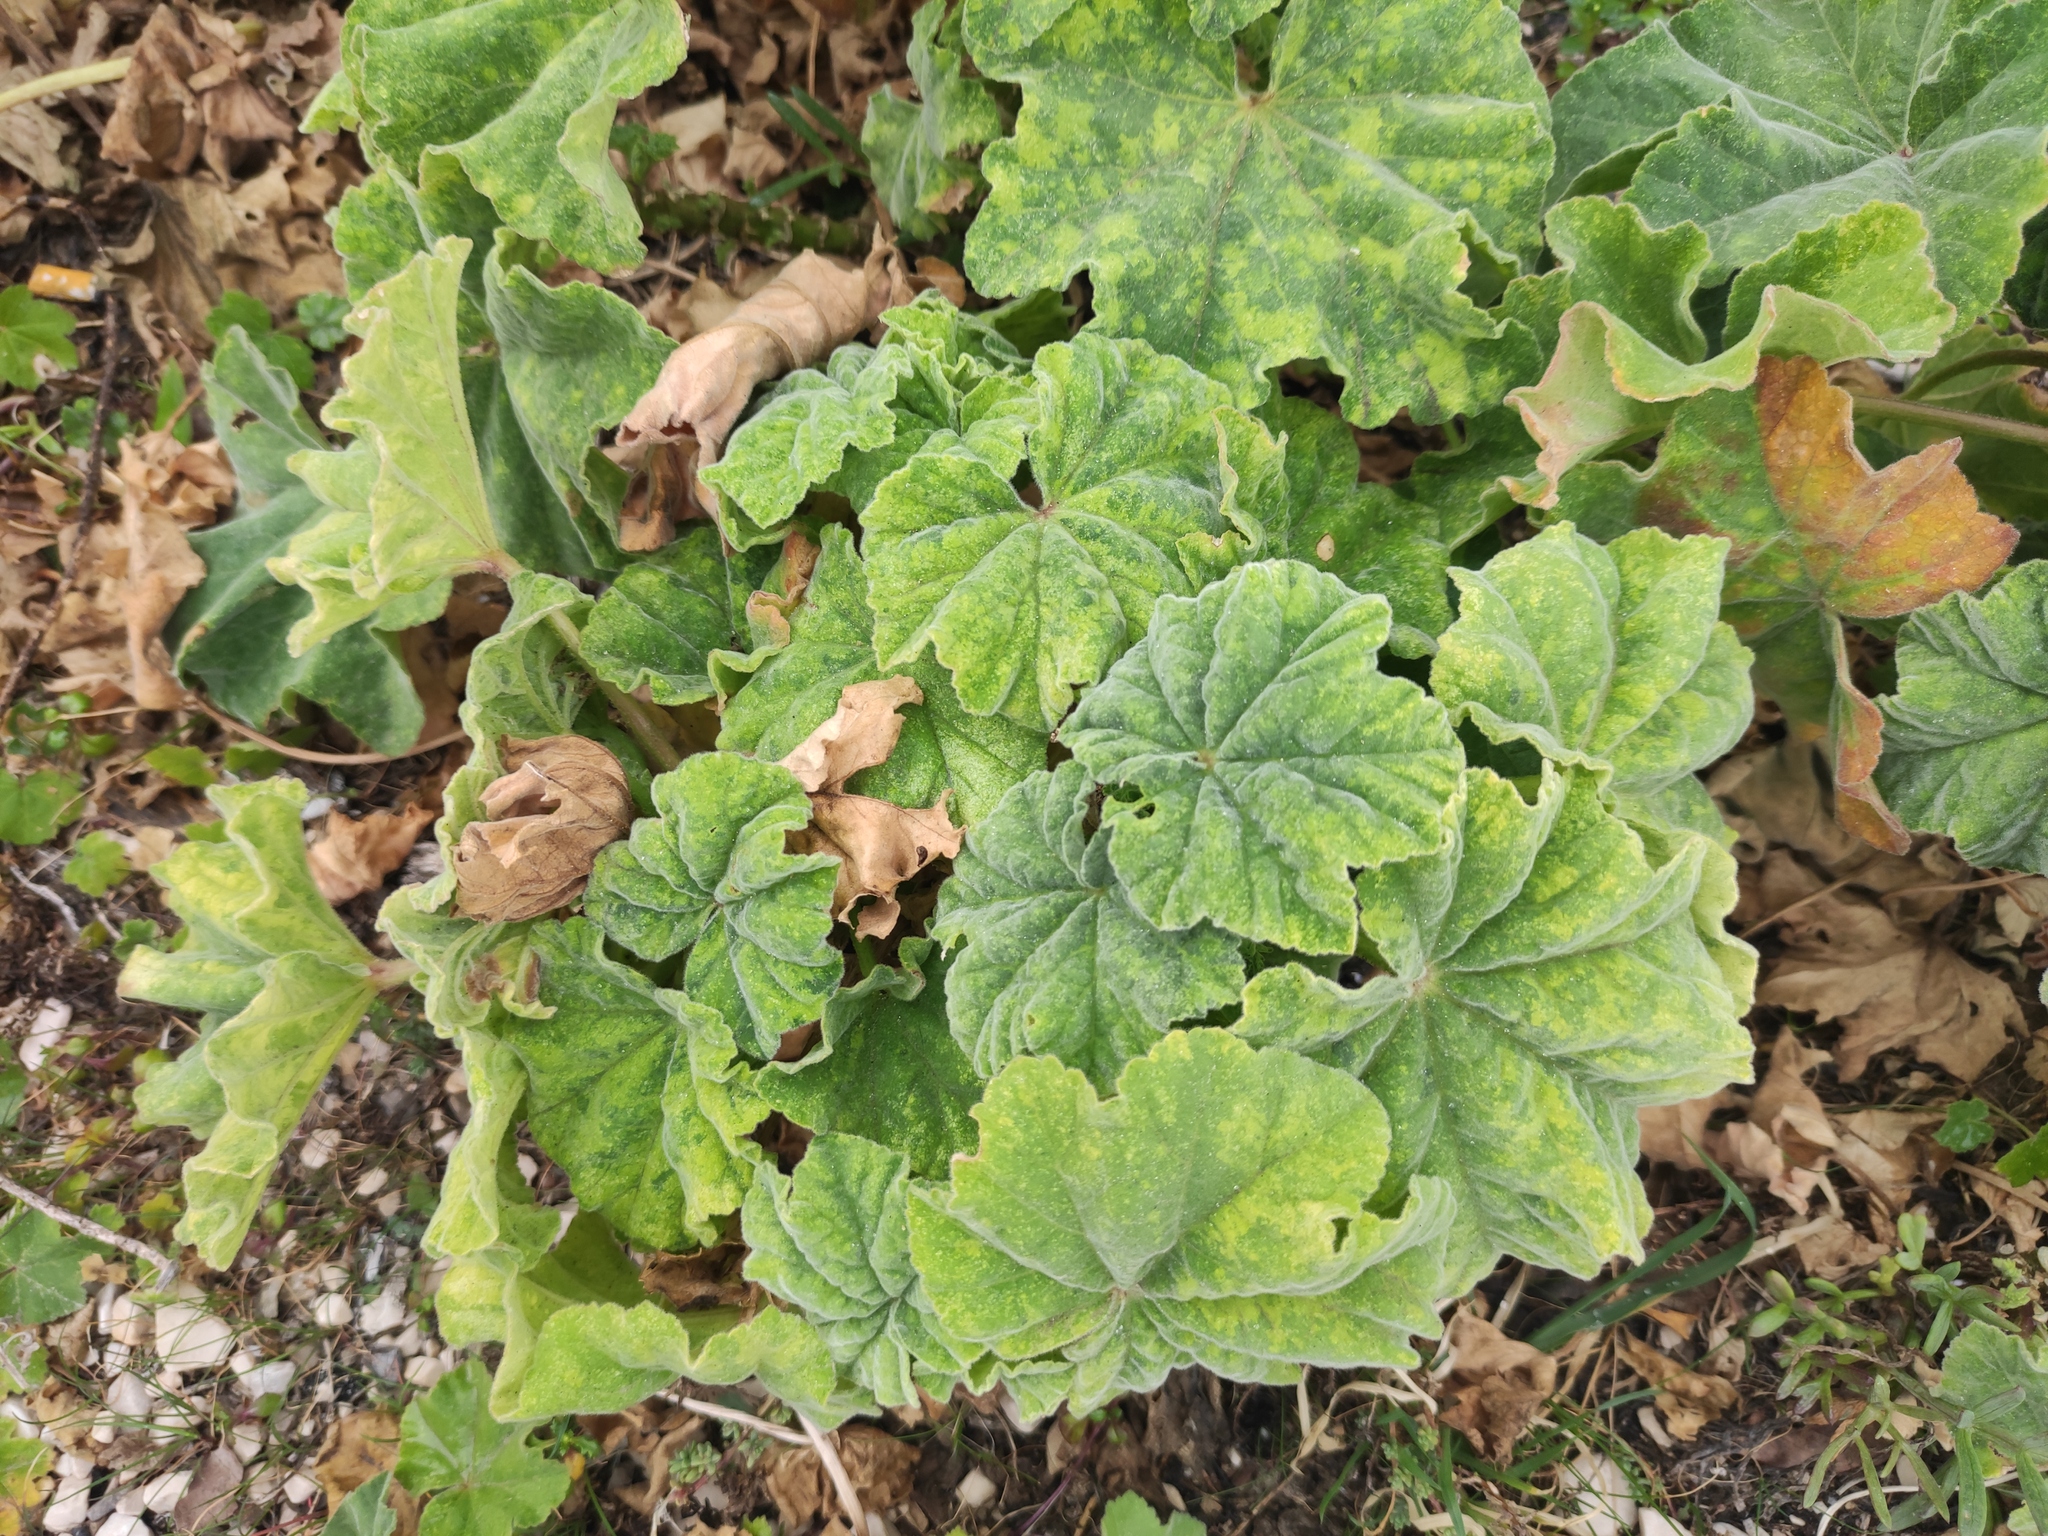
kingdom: Plantae
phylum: Tracheophyta
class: Magnoliopsida
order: Malvales
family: Malvaceae
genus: Malva
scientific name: Malva arborea
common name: Tree mallow
